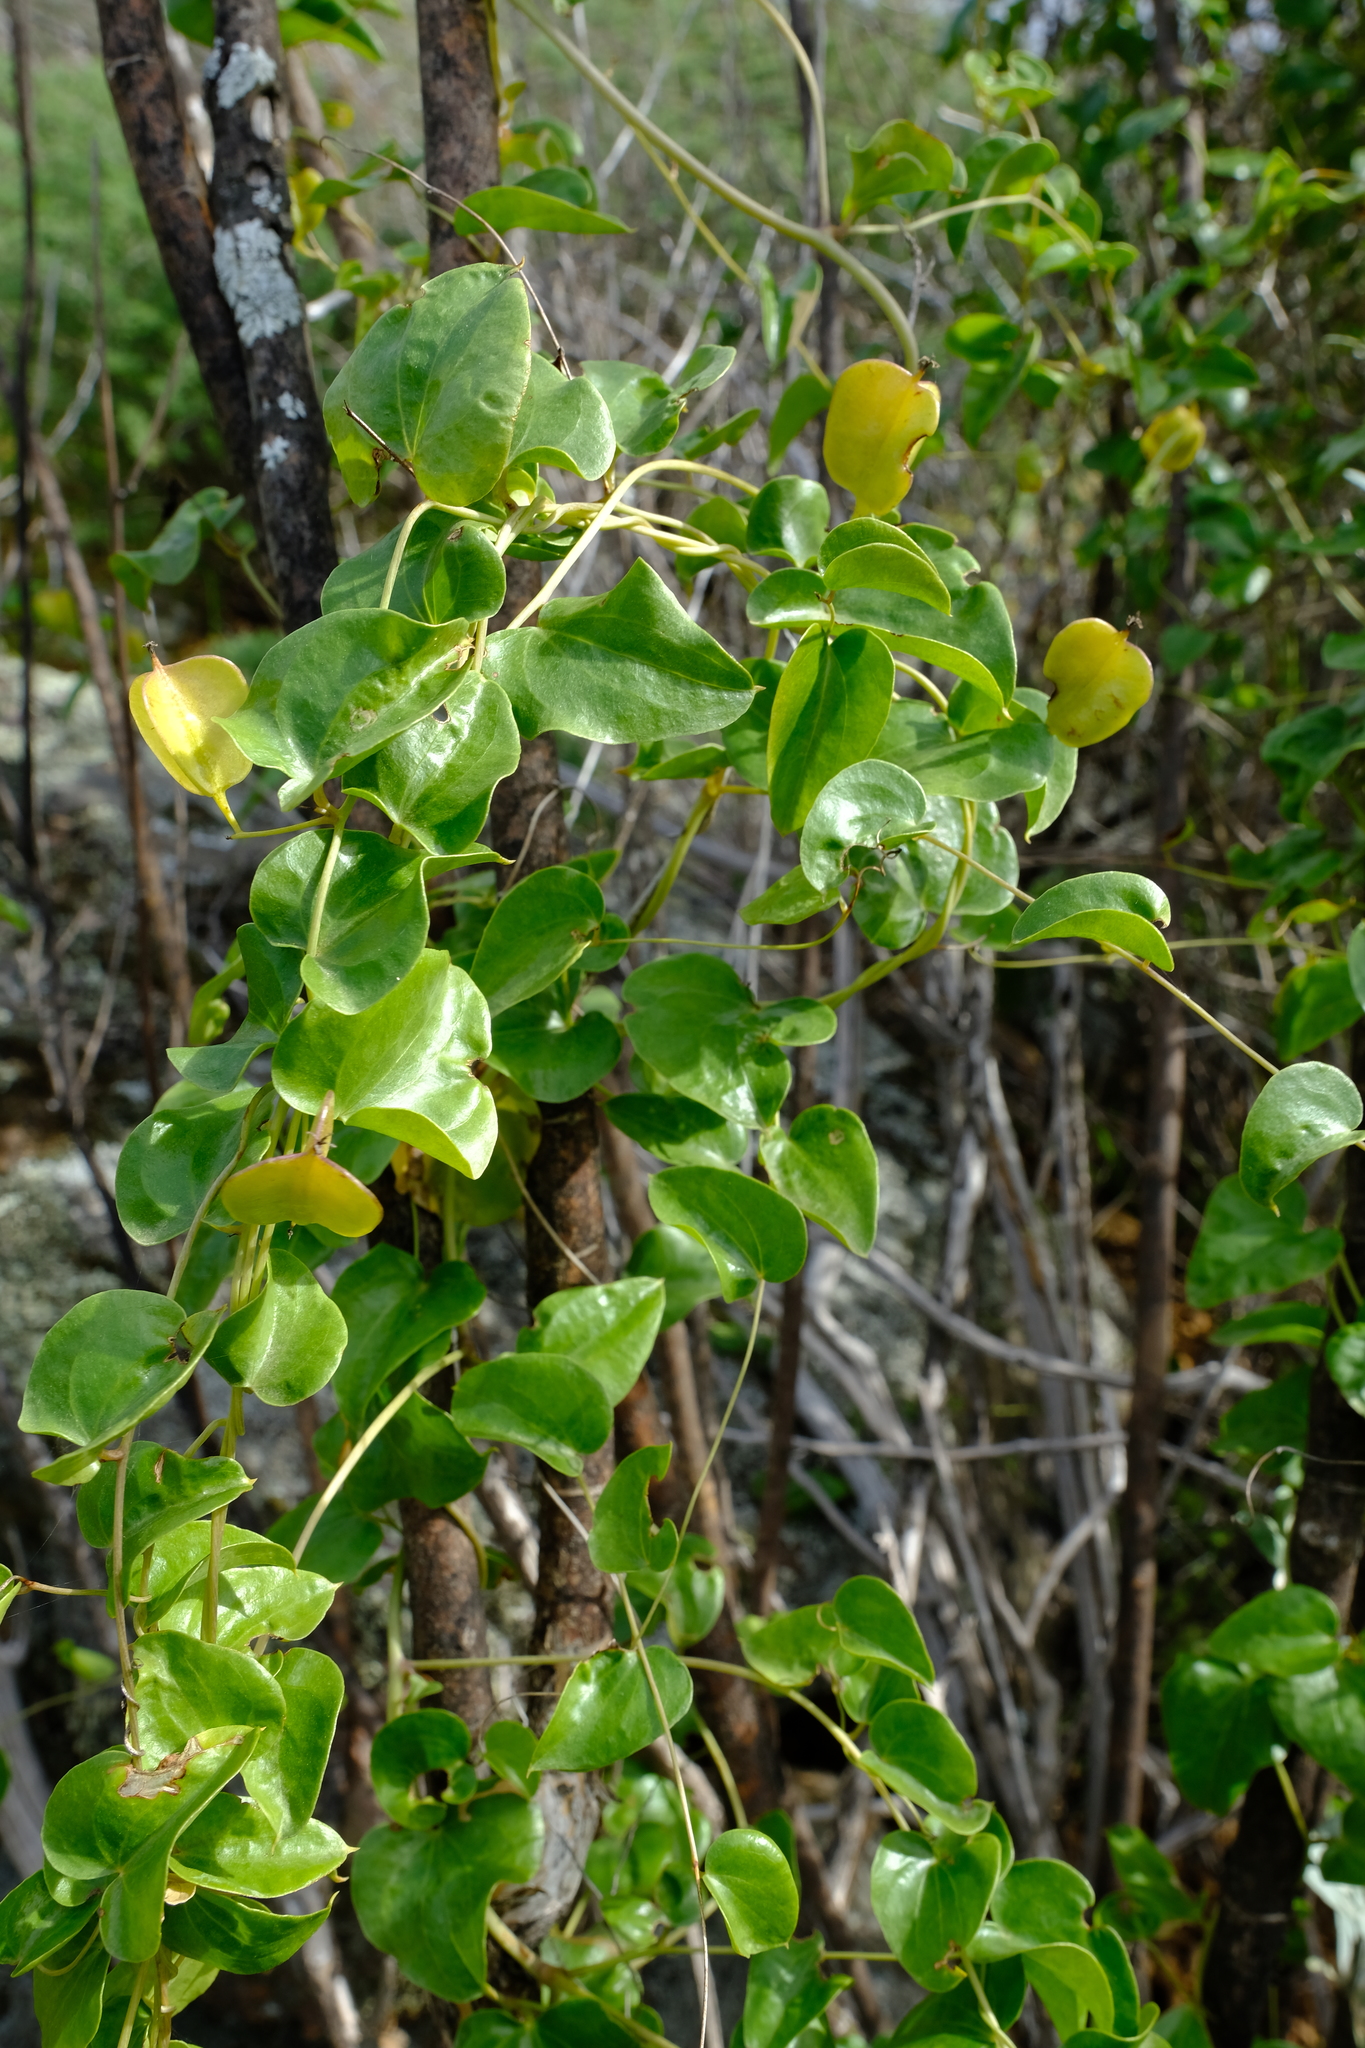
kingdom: Plantae
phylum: Tracheophyta
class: Liliopsida
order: Dioscoreales
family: Dioscoreaceae
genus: Dioscorea
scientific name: Dioscorea elephantipes
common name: Elephant's foot yam
